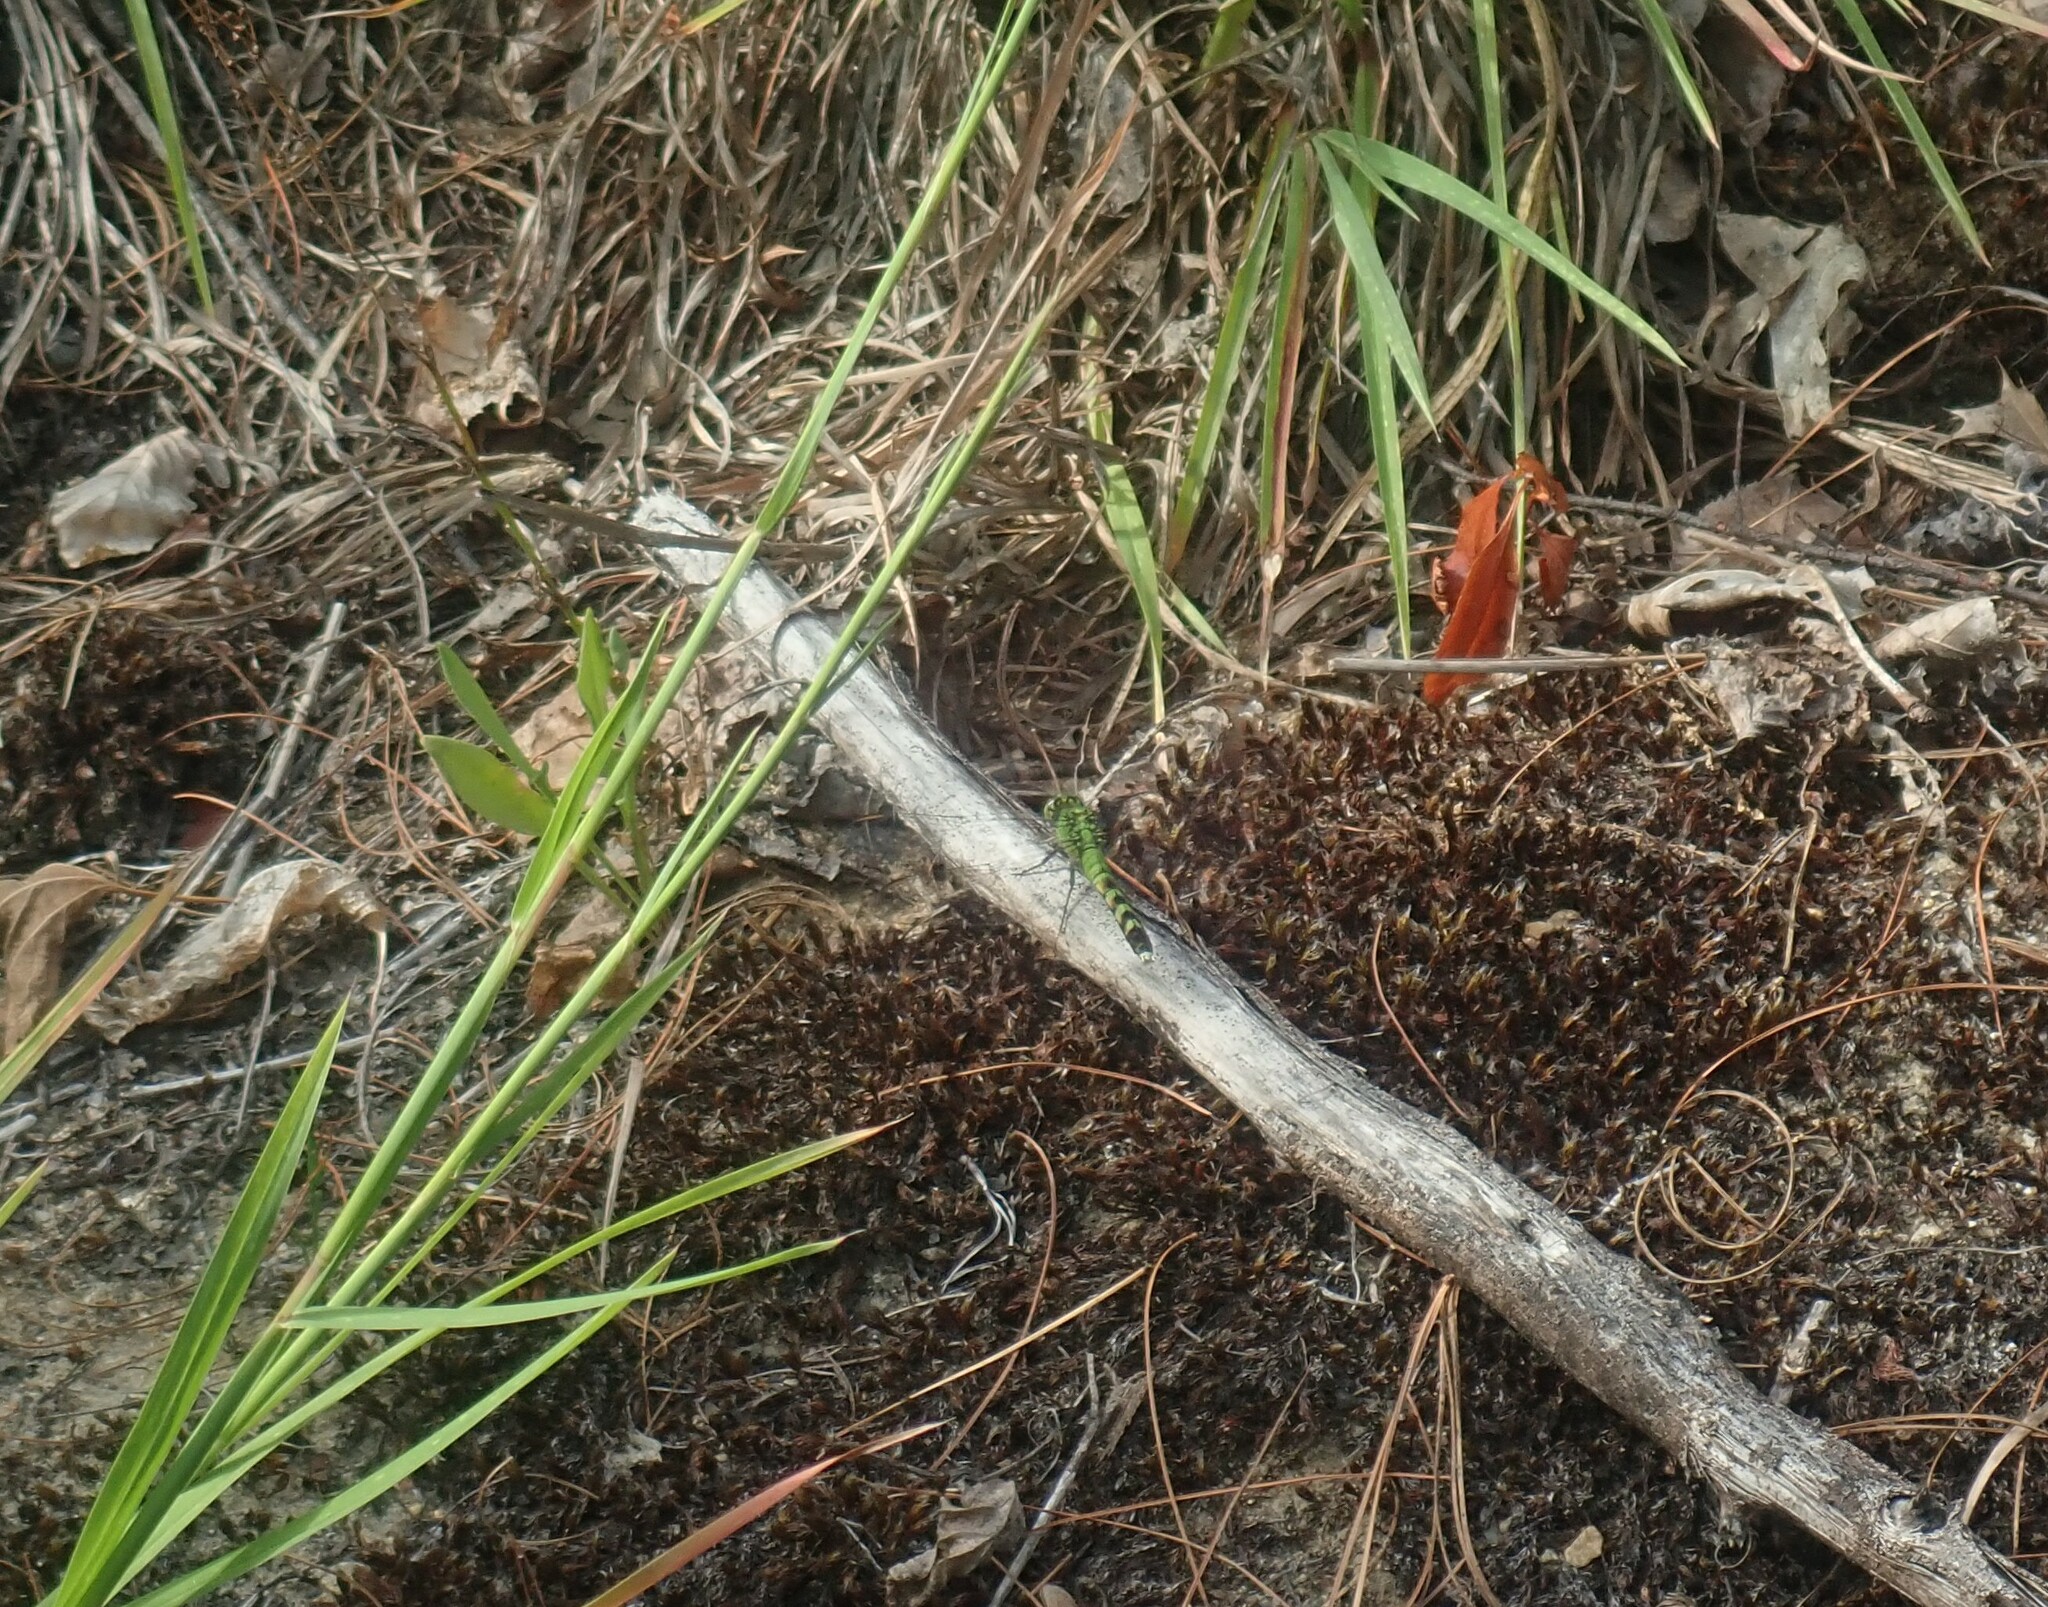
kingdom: Animalia
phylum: Arthropoda
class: Insecta
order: Odonata
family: Libellulidae
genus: Erythemis
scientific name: Erythemis simplicicollis
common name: Eastern pondhawk
